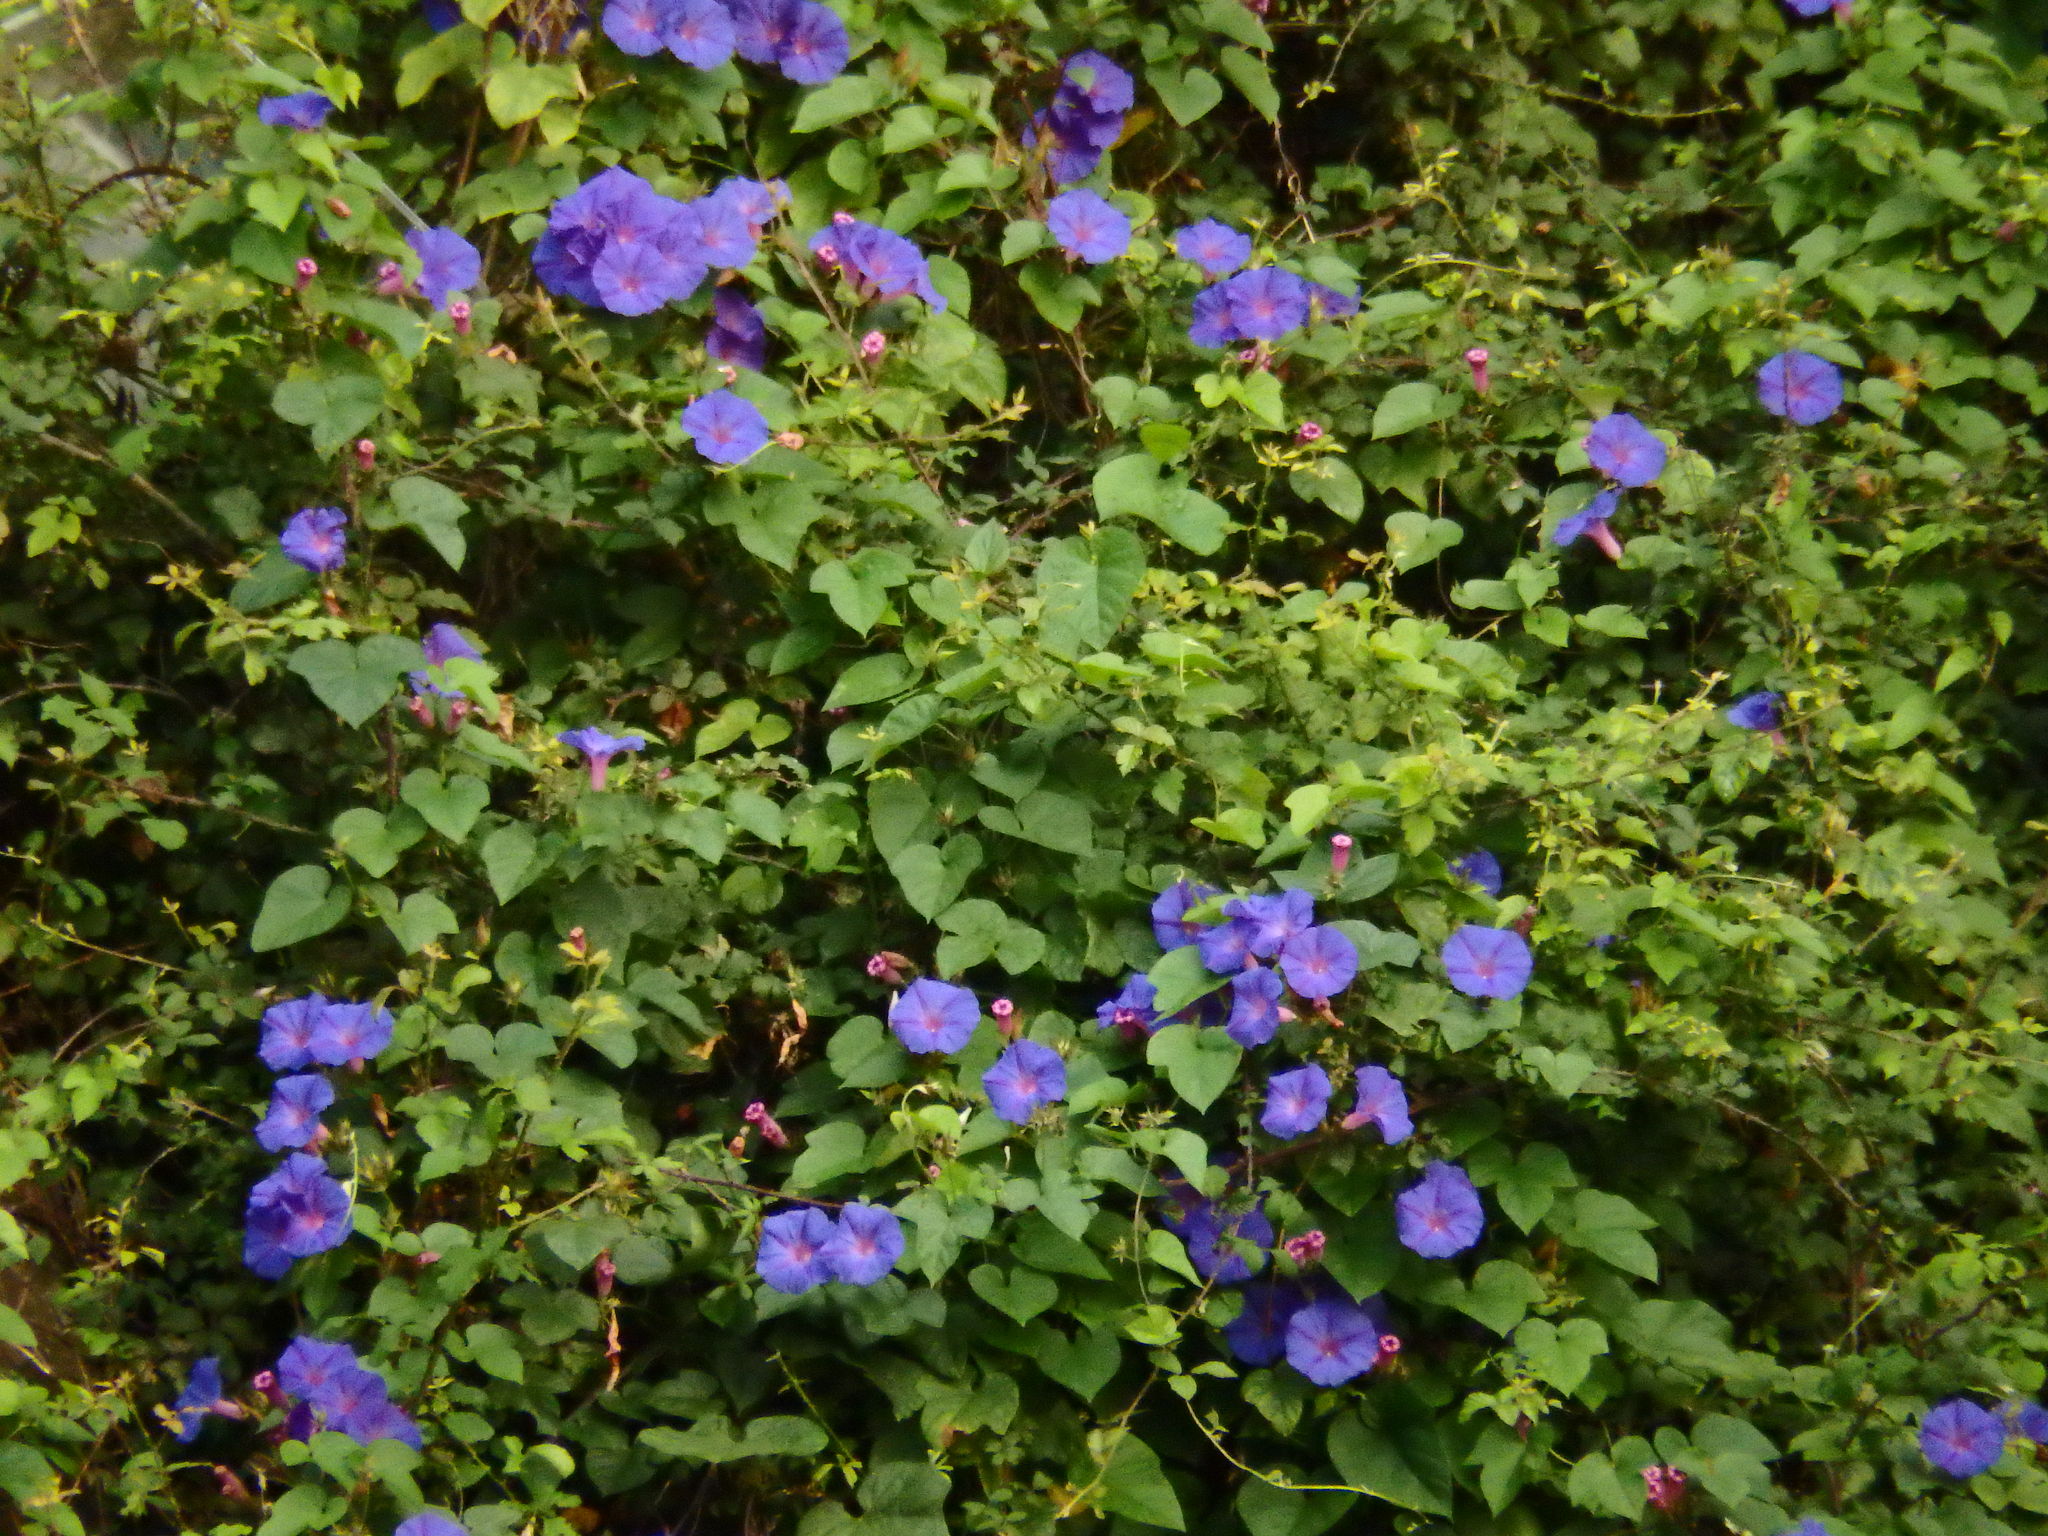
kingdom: Plantae
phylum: Tracheophyta
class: Magnoliopsida
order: Solanales
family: Convolvulaceae
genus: Ipomoea
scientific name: Ipomoea indica
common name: Blue dawnflower
